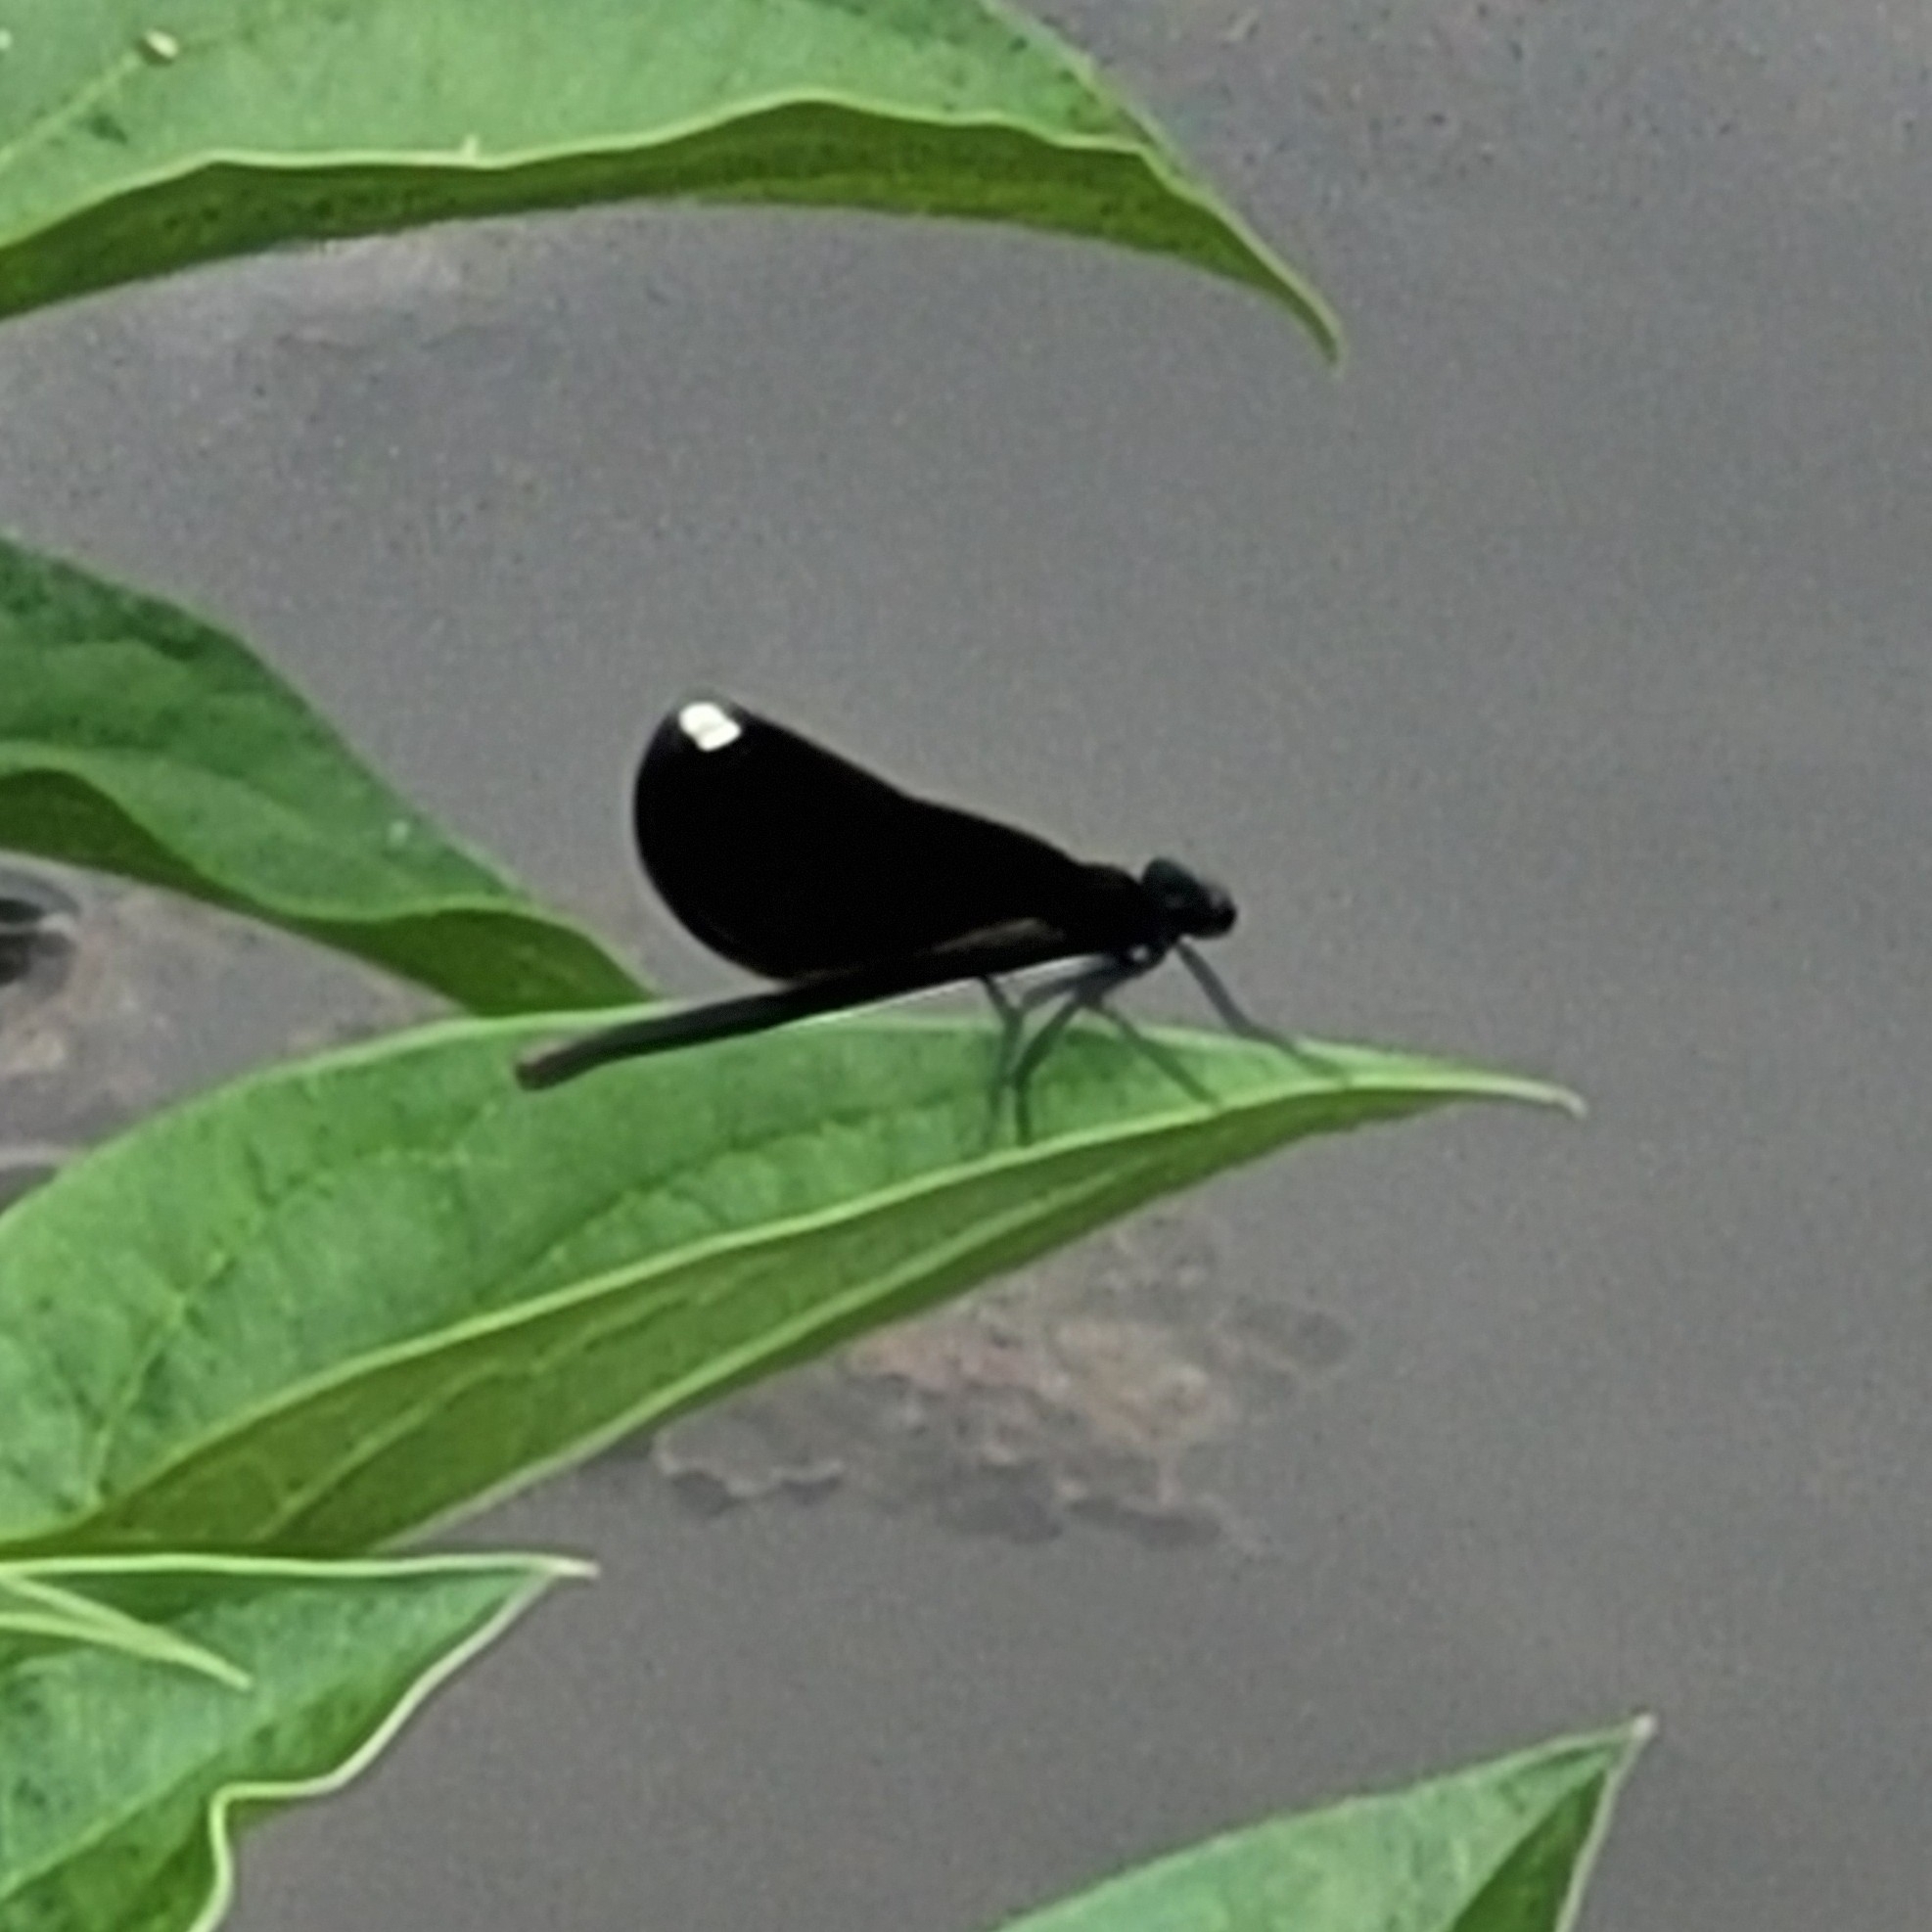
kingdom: Animalia
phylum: Arthropoda
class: Insecta
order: Odonata
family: Calopterygidae
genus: Calopteryx
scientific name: Calopteryx maculata
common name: Ebony jewelwing
